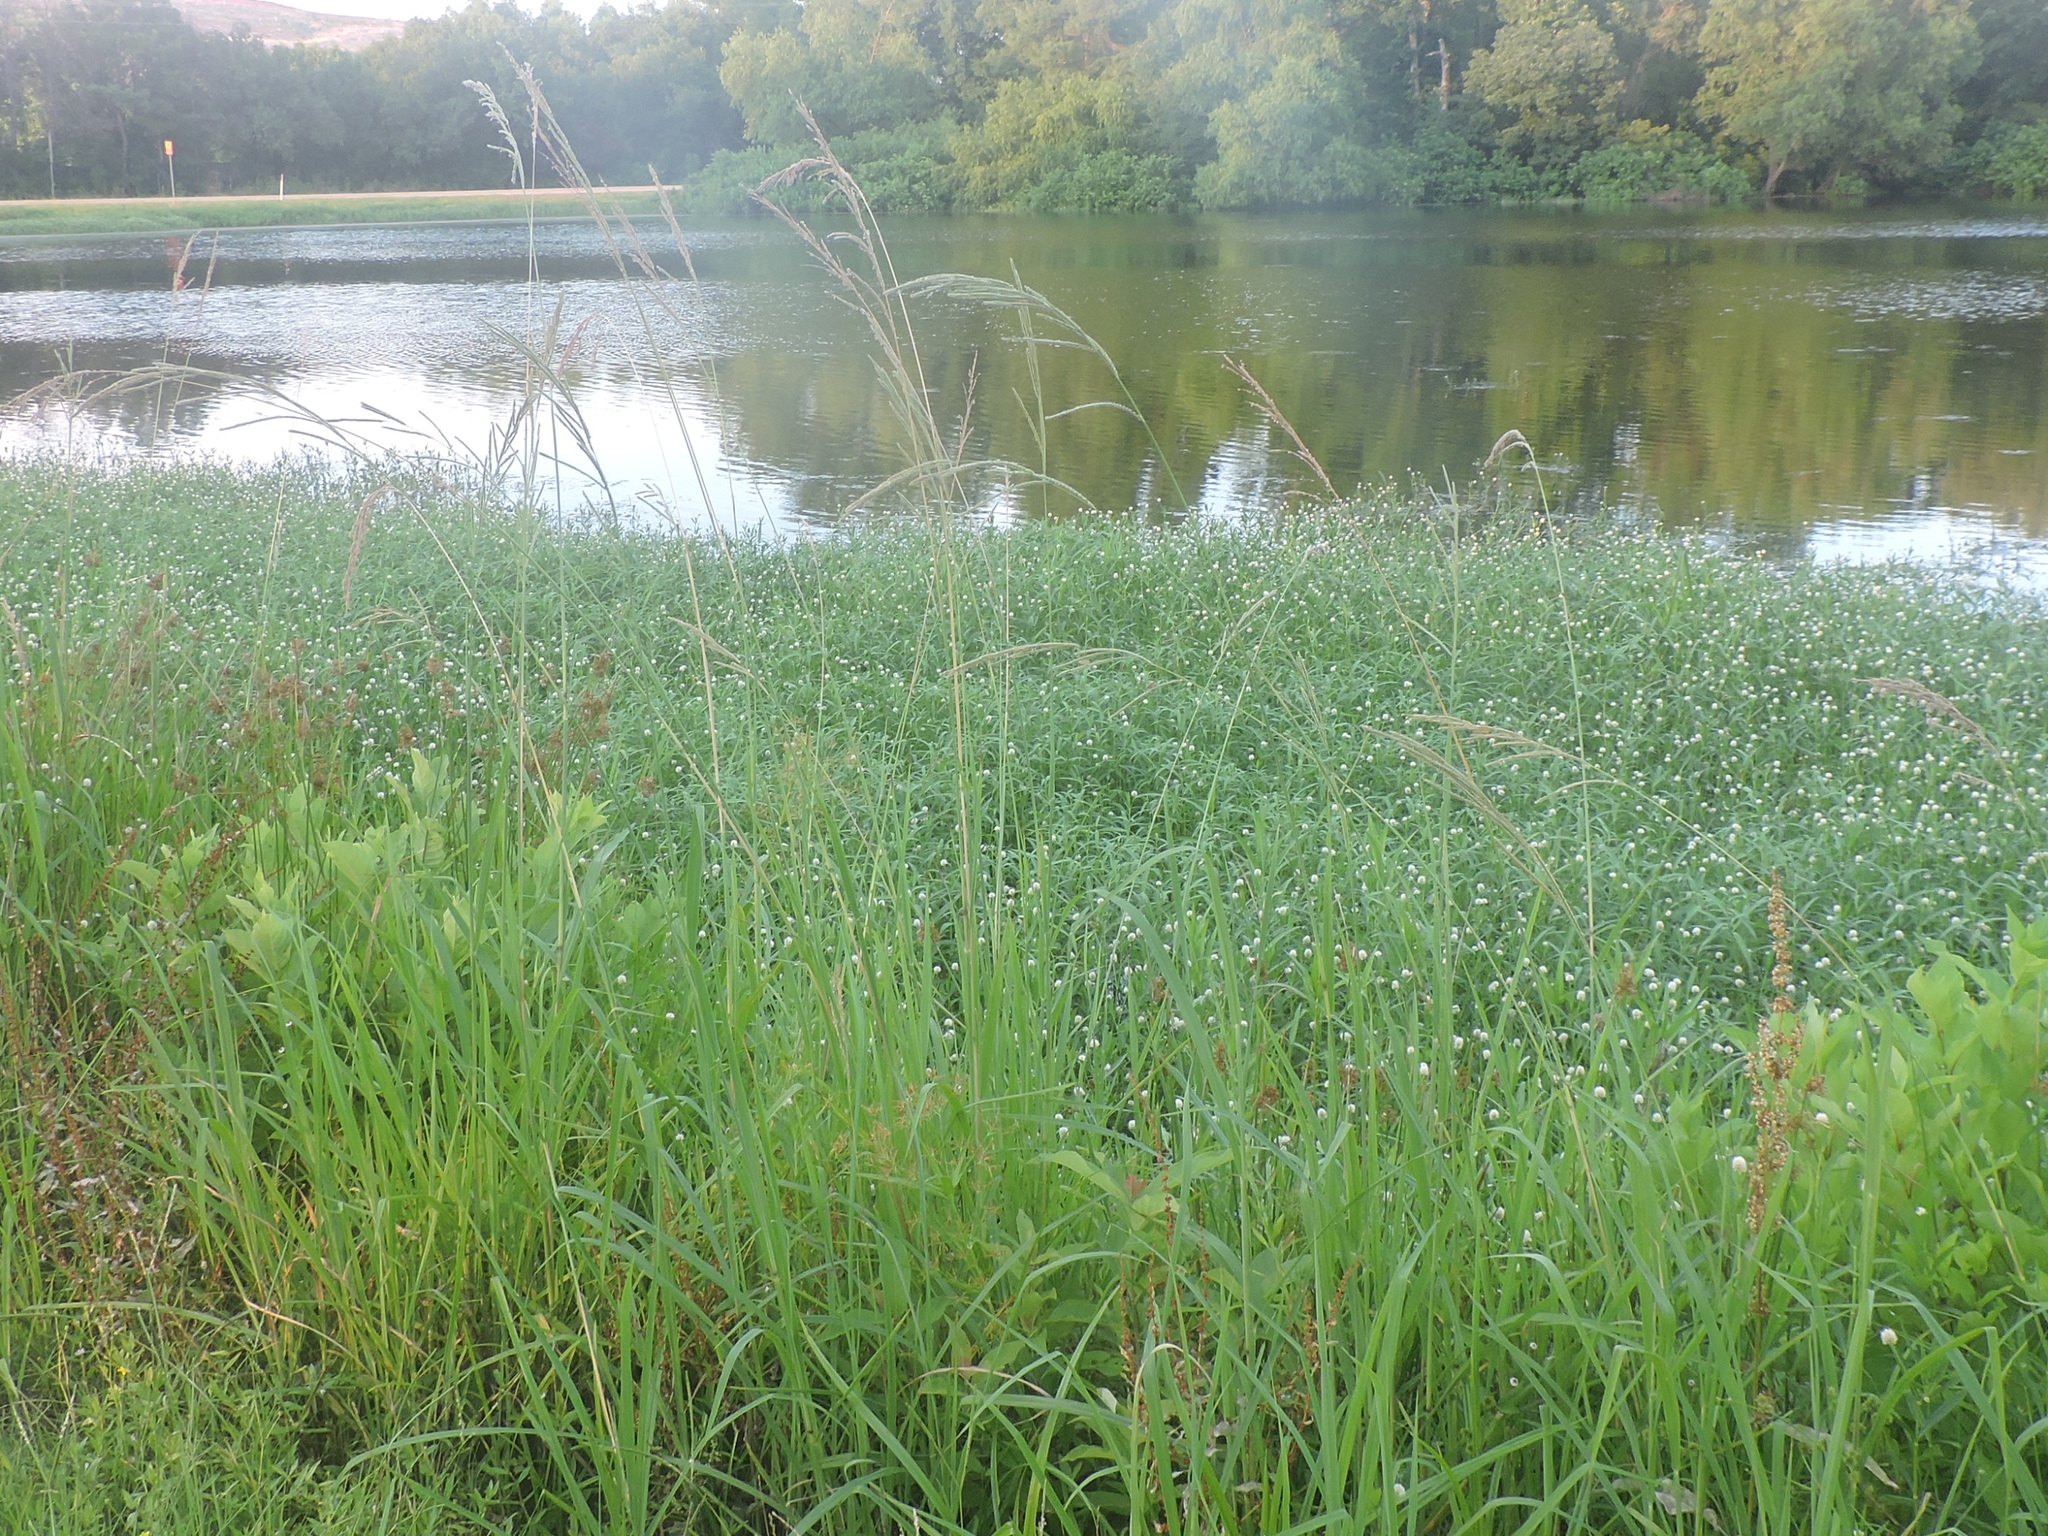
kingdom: Plantae
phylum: Tracheophyta
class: Liliopsida
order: Poales
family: Poaceae
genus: Paspalum
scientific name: Paspalum urvillei
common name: Vasey's grass
